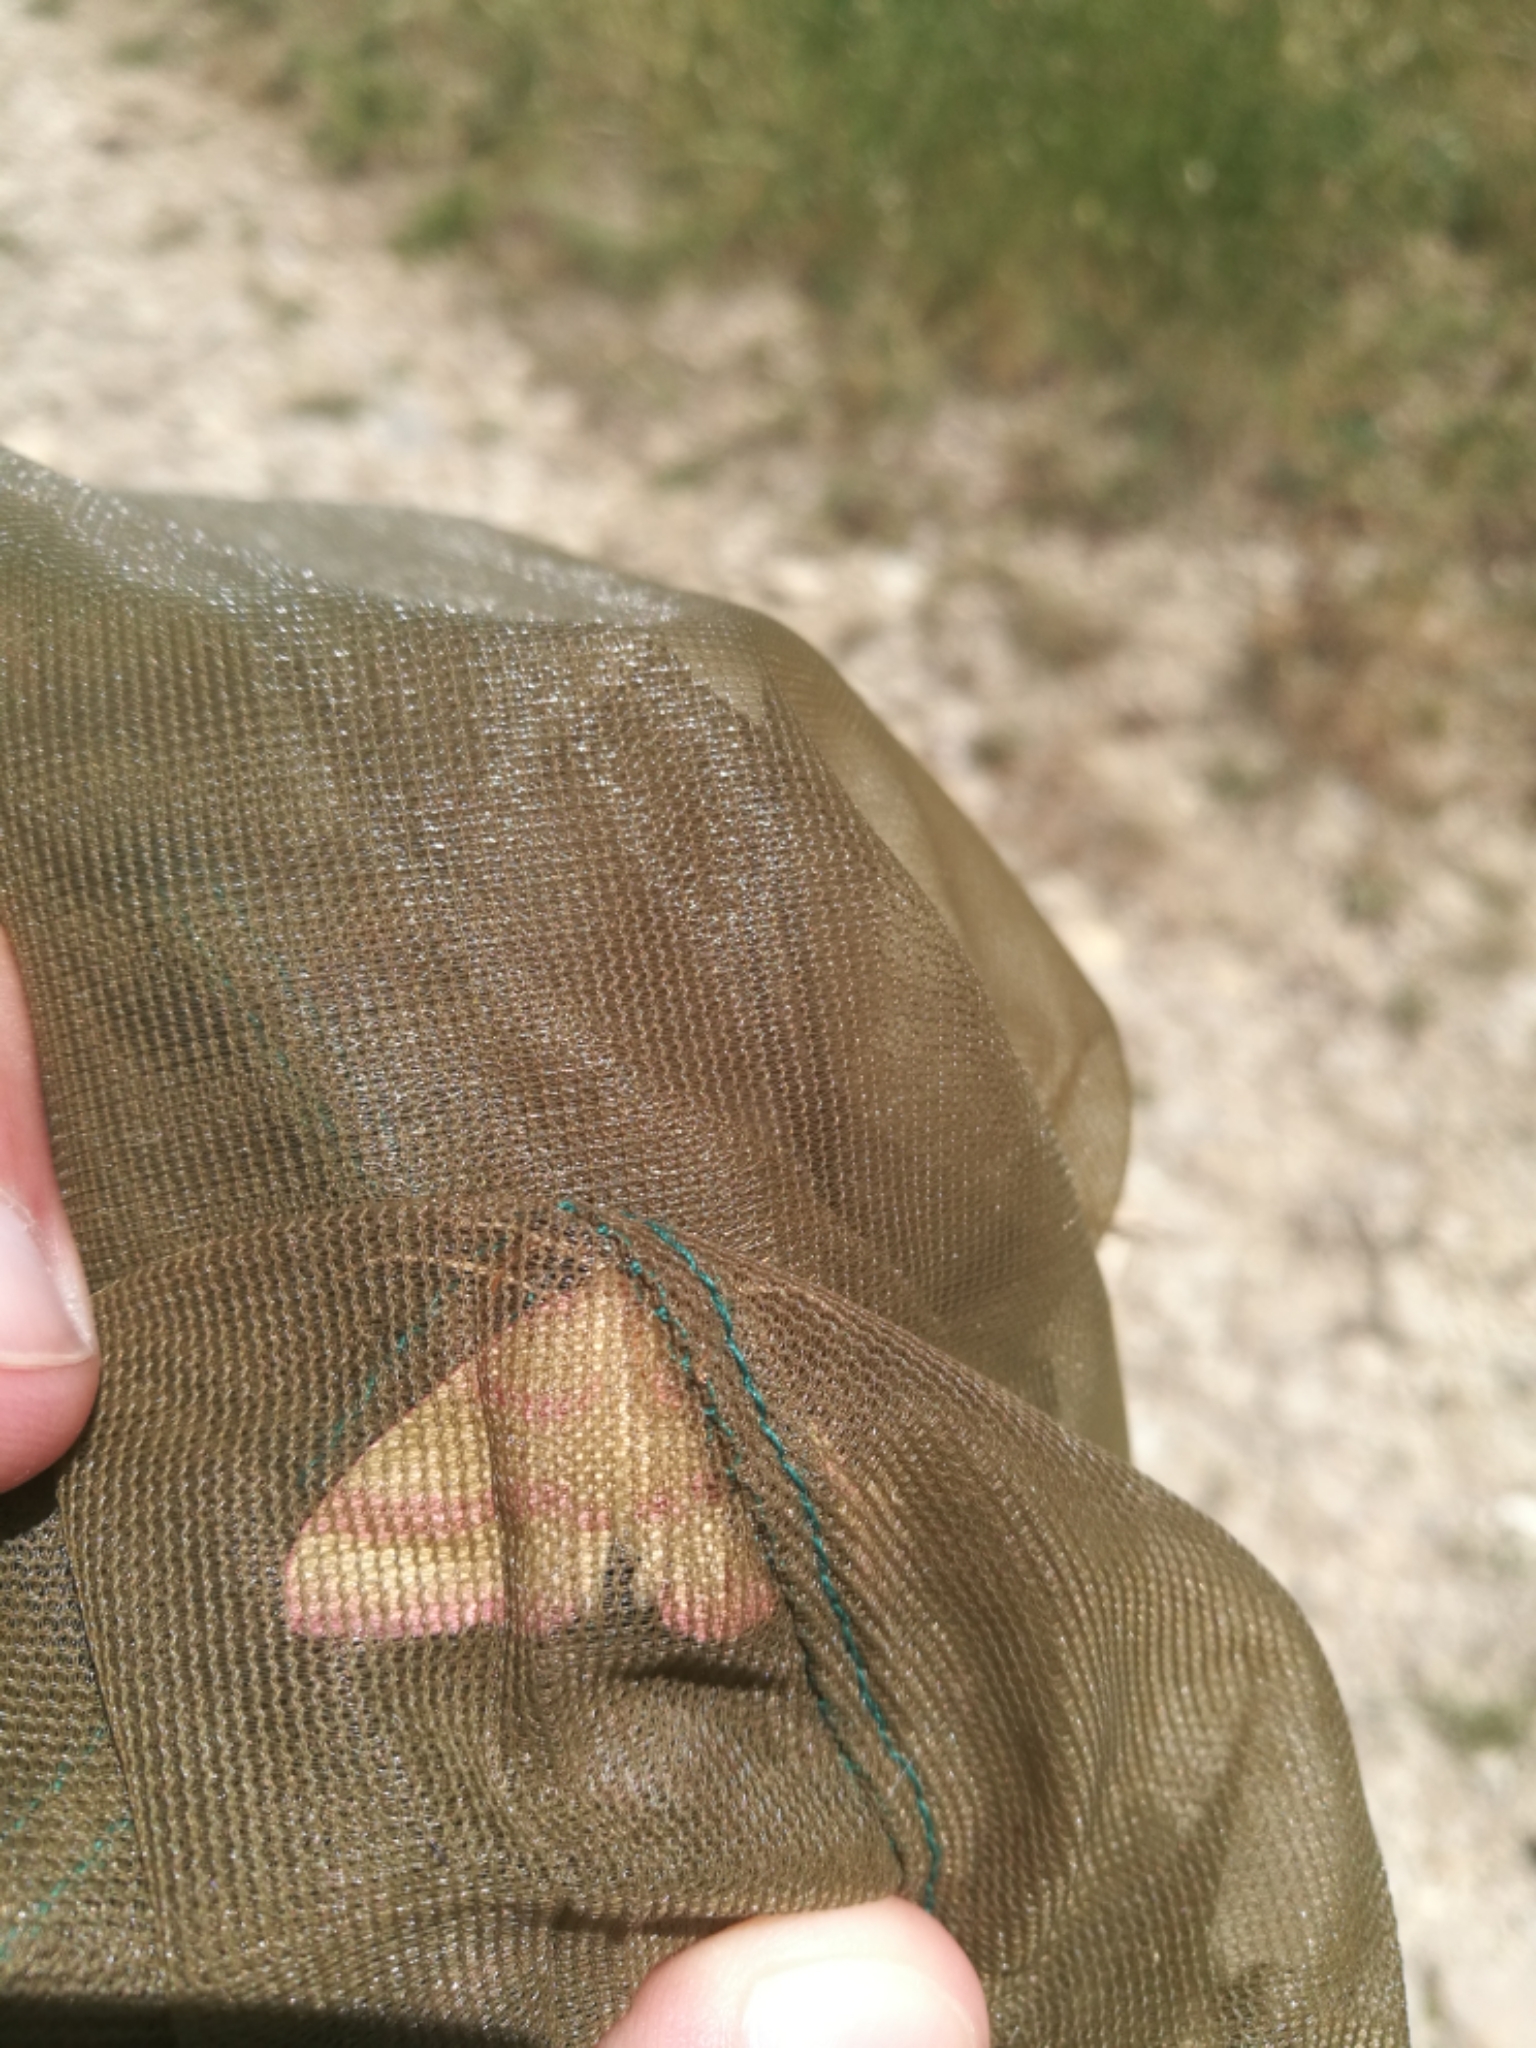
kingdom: Animalia
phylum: Arthropoda
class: Insecta
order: Lepidoptera
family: Geometridae
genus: Rhodostrophia
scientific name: Rhodostrophia calabra
